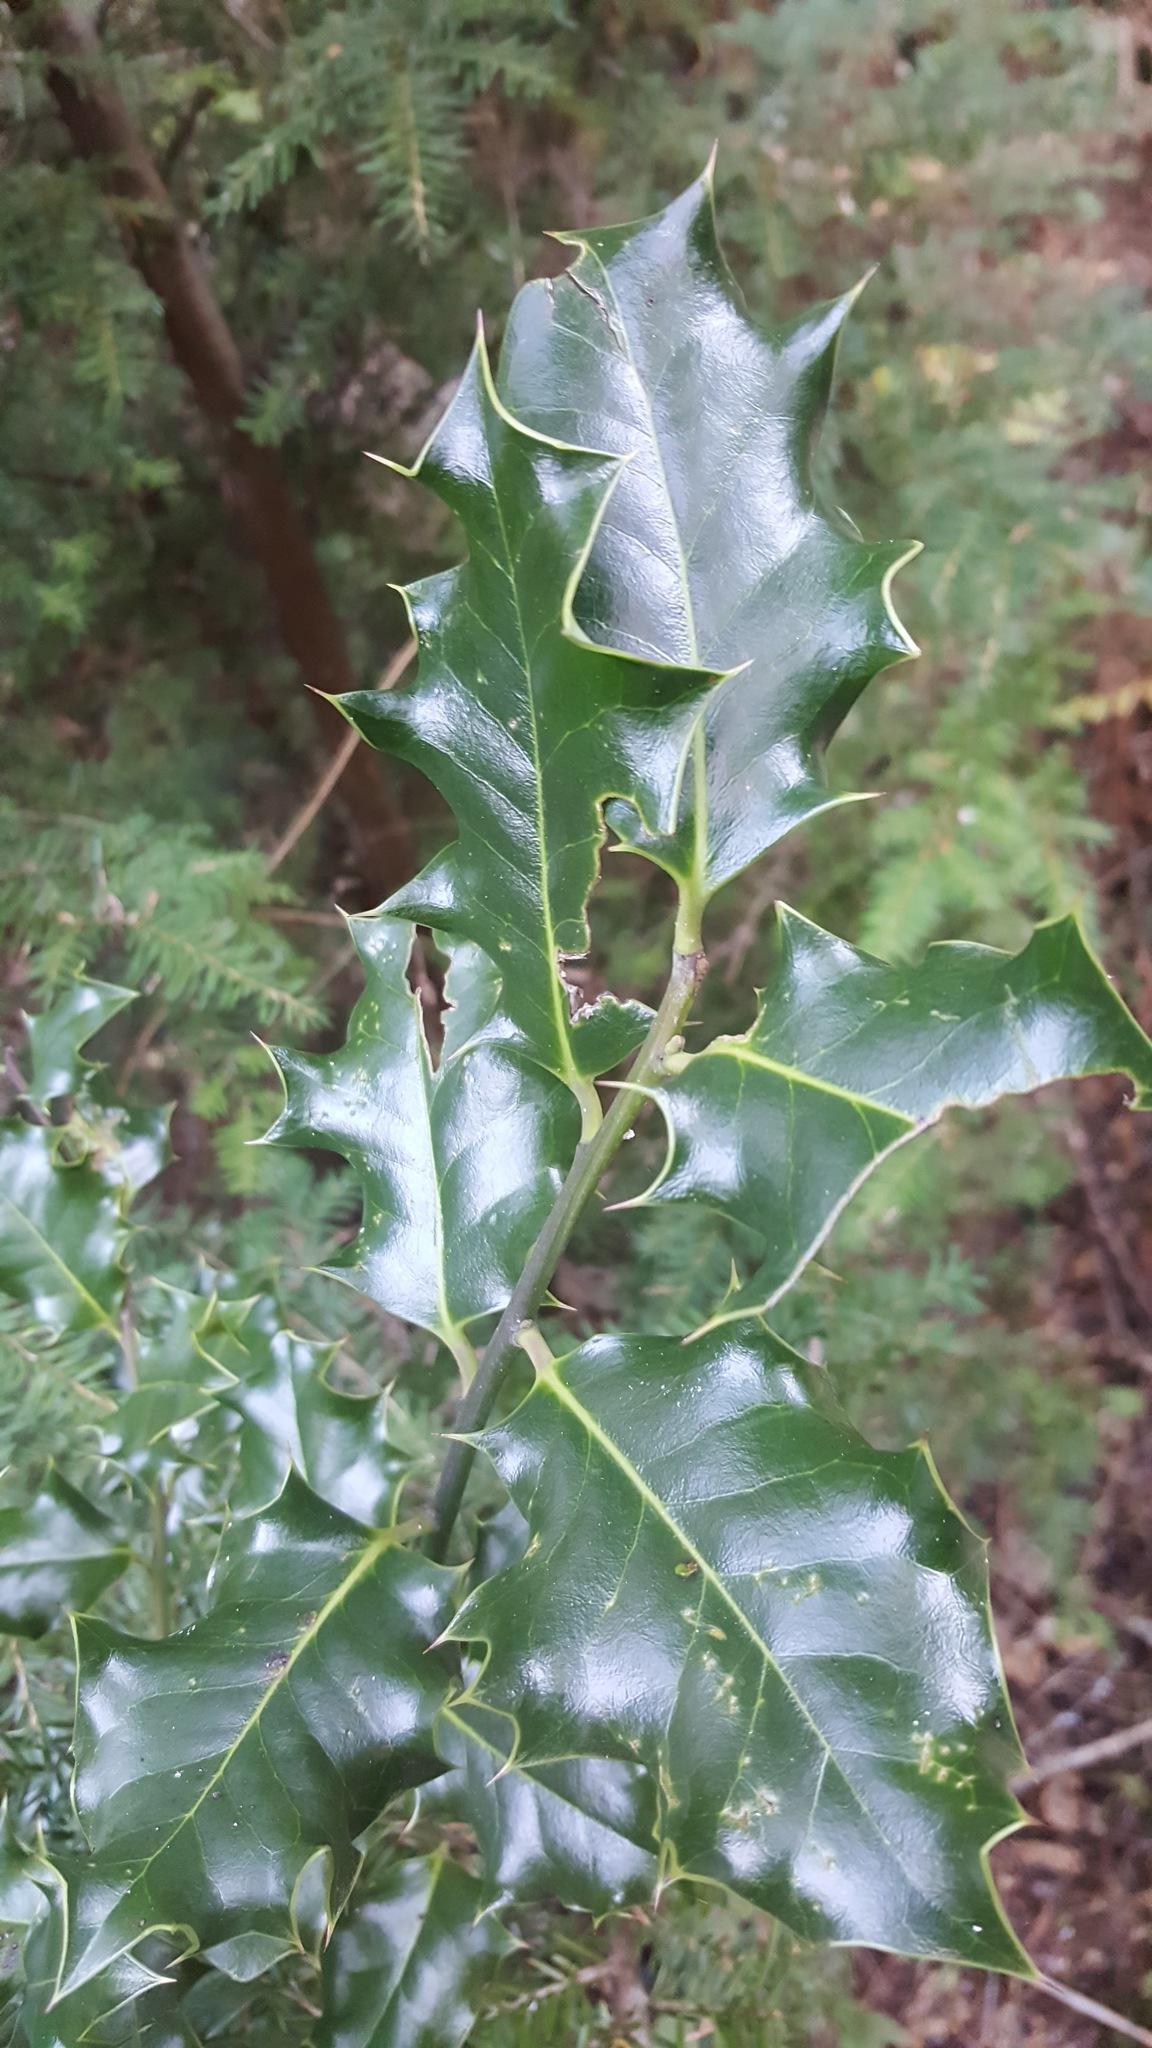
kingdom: Plantae
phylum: Tracheophyta
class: Magnoliopsida
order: Aquifoliales
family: Aquifoliaceae
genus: Ilex
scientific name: Ilex aquifolium
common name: English holly
